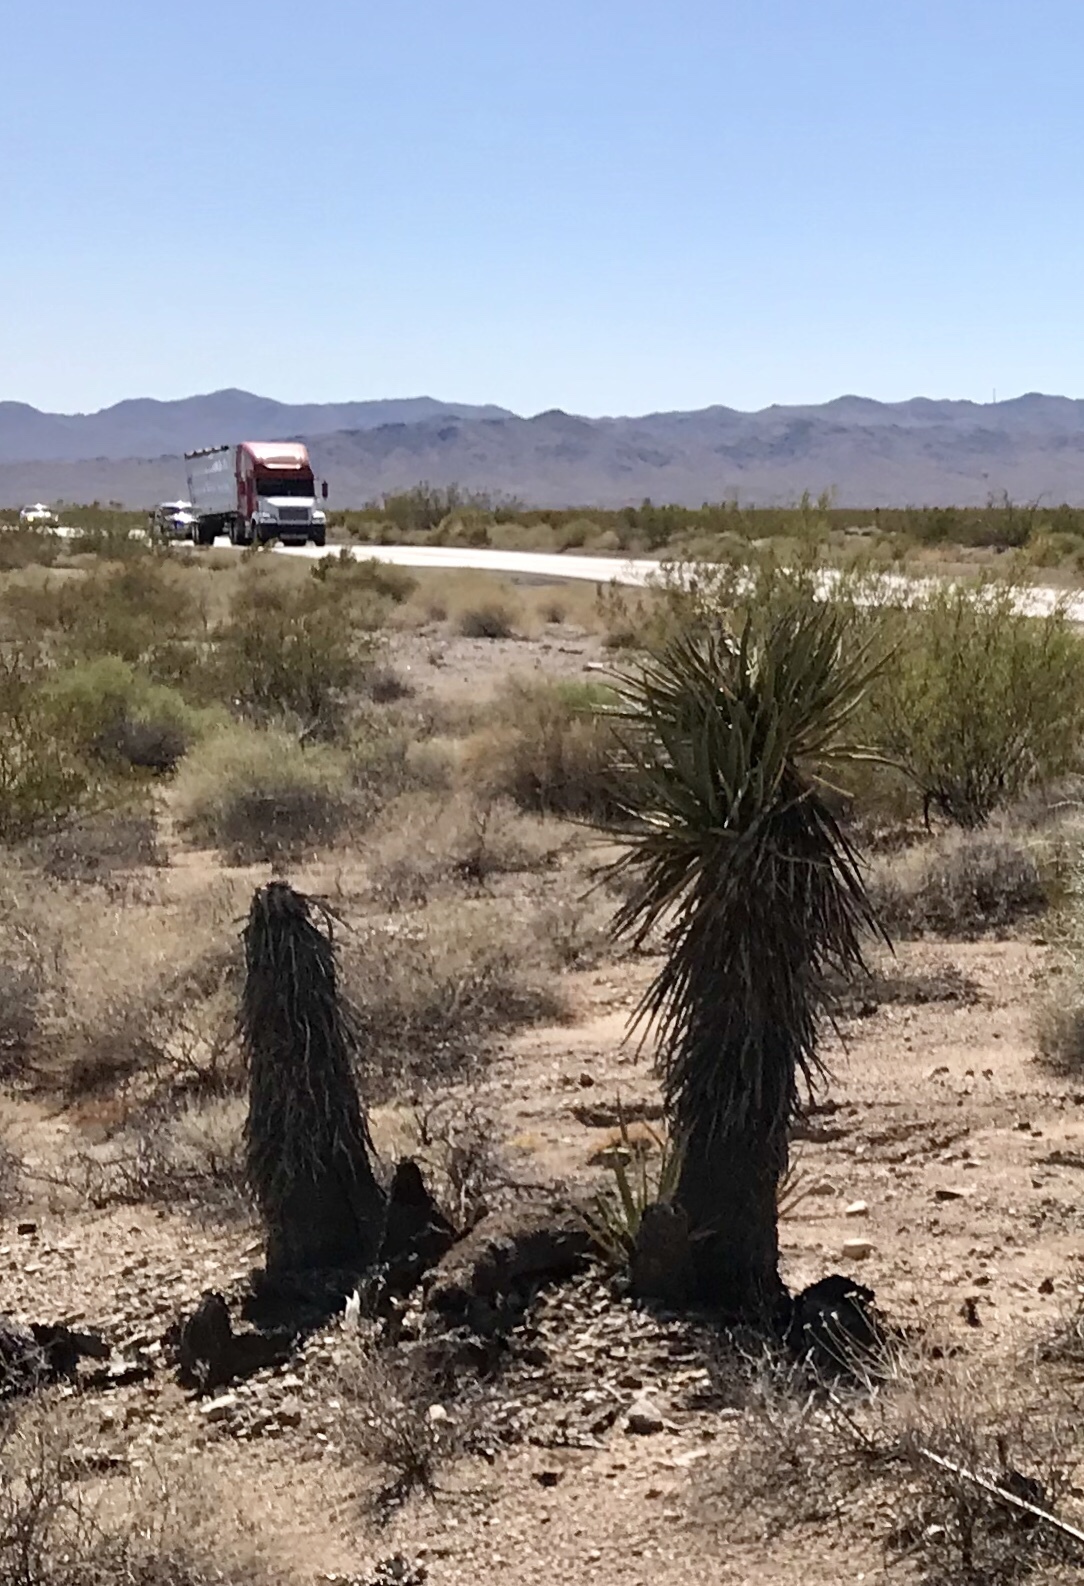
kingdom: Plantae
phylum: Tracheophyta
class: Liliopsida
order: Asparagales
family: Asparagaceae
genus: Yucca
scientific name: Yucca schidigera
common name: Mojave yucca
